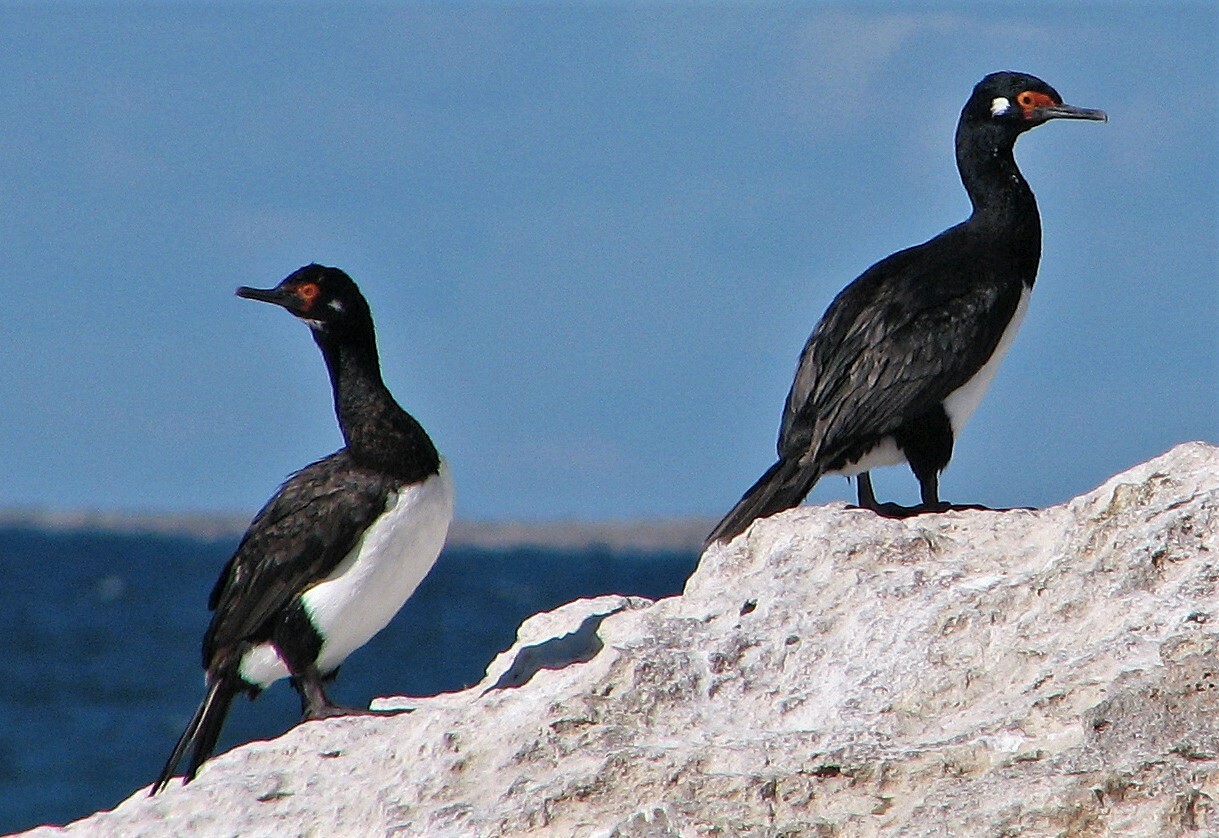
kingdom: Animalia
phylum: Chordata
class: Aves
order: Suliformes
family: Phalacrocoracidae
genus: Phalacrocorax
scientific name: Phalacrocorax magellanicus
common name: Rock shag
